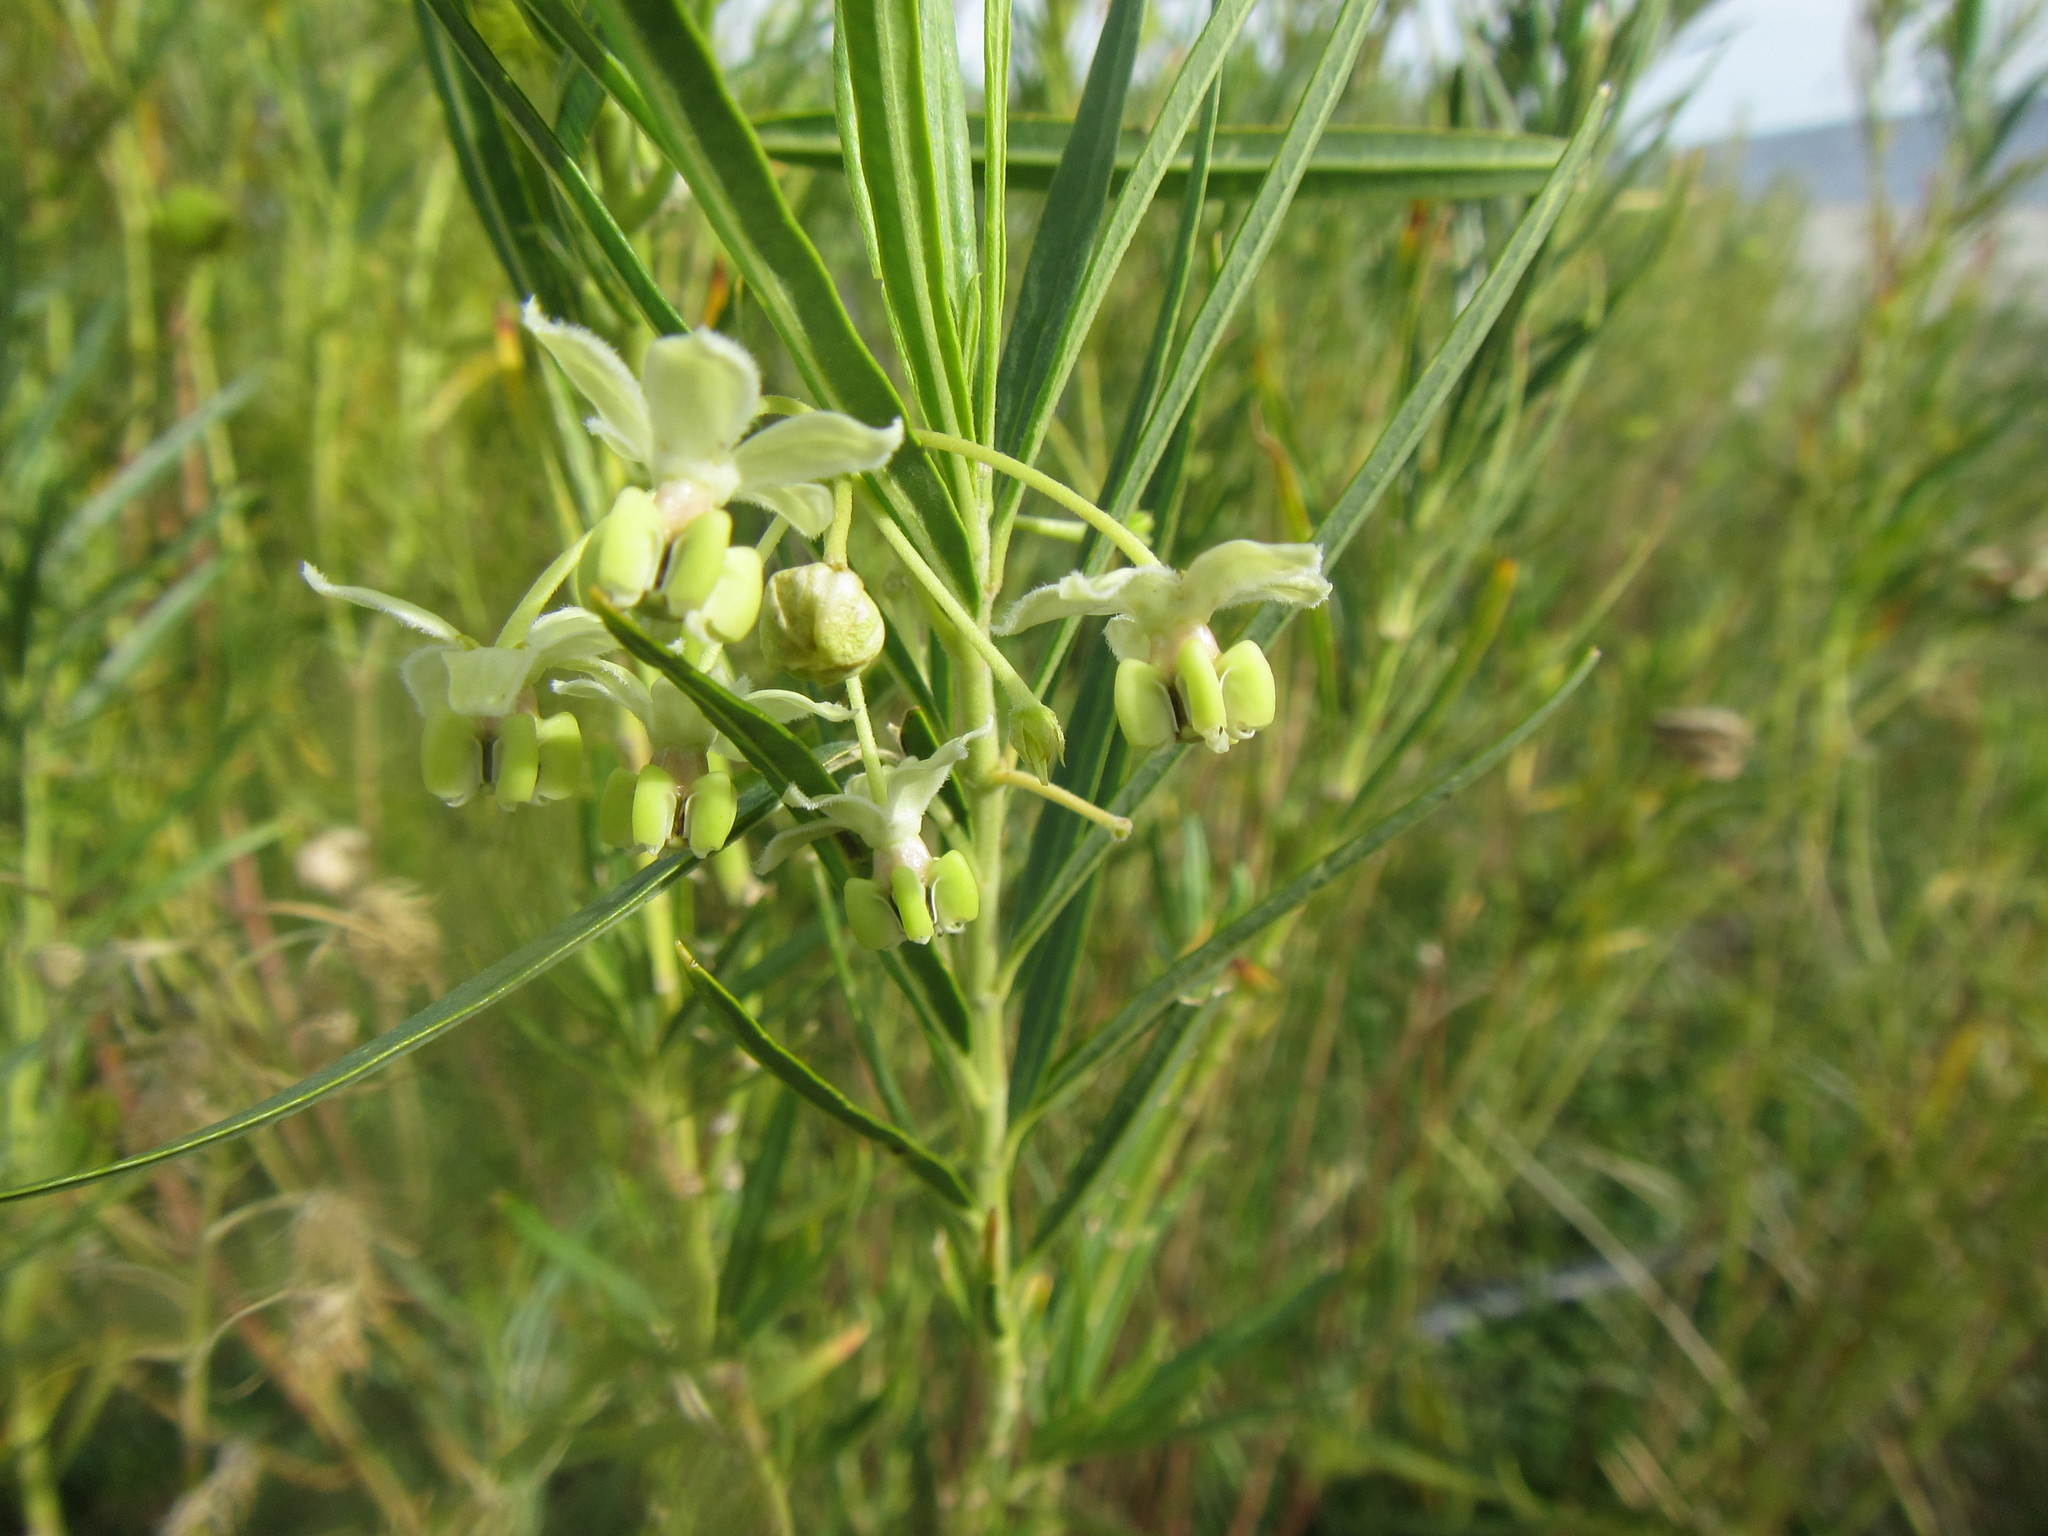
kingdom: Plantae
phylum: Tracheophyta
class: Magnoliopsida
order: Gentianales
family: Apocynaceae
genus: Gomphocarpus
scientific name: Gomphocarpus fruticosus
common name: Milkweed
